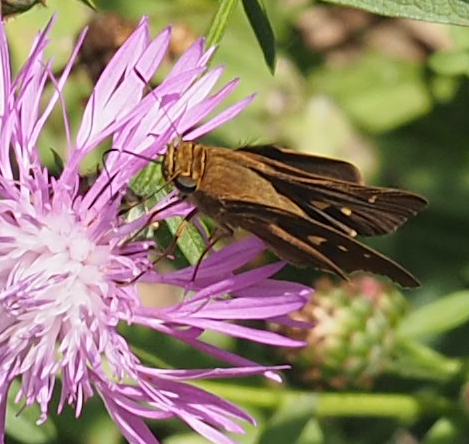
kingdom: Animalia
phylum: Arthropoda
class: Insecta
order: Lepidoptera
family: Hesperiidae
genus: Panoquina
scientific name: Panoquina ocola
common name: Ocola skipper
